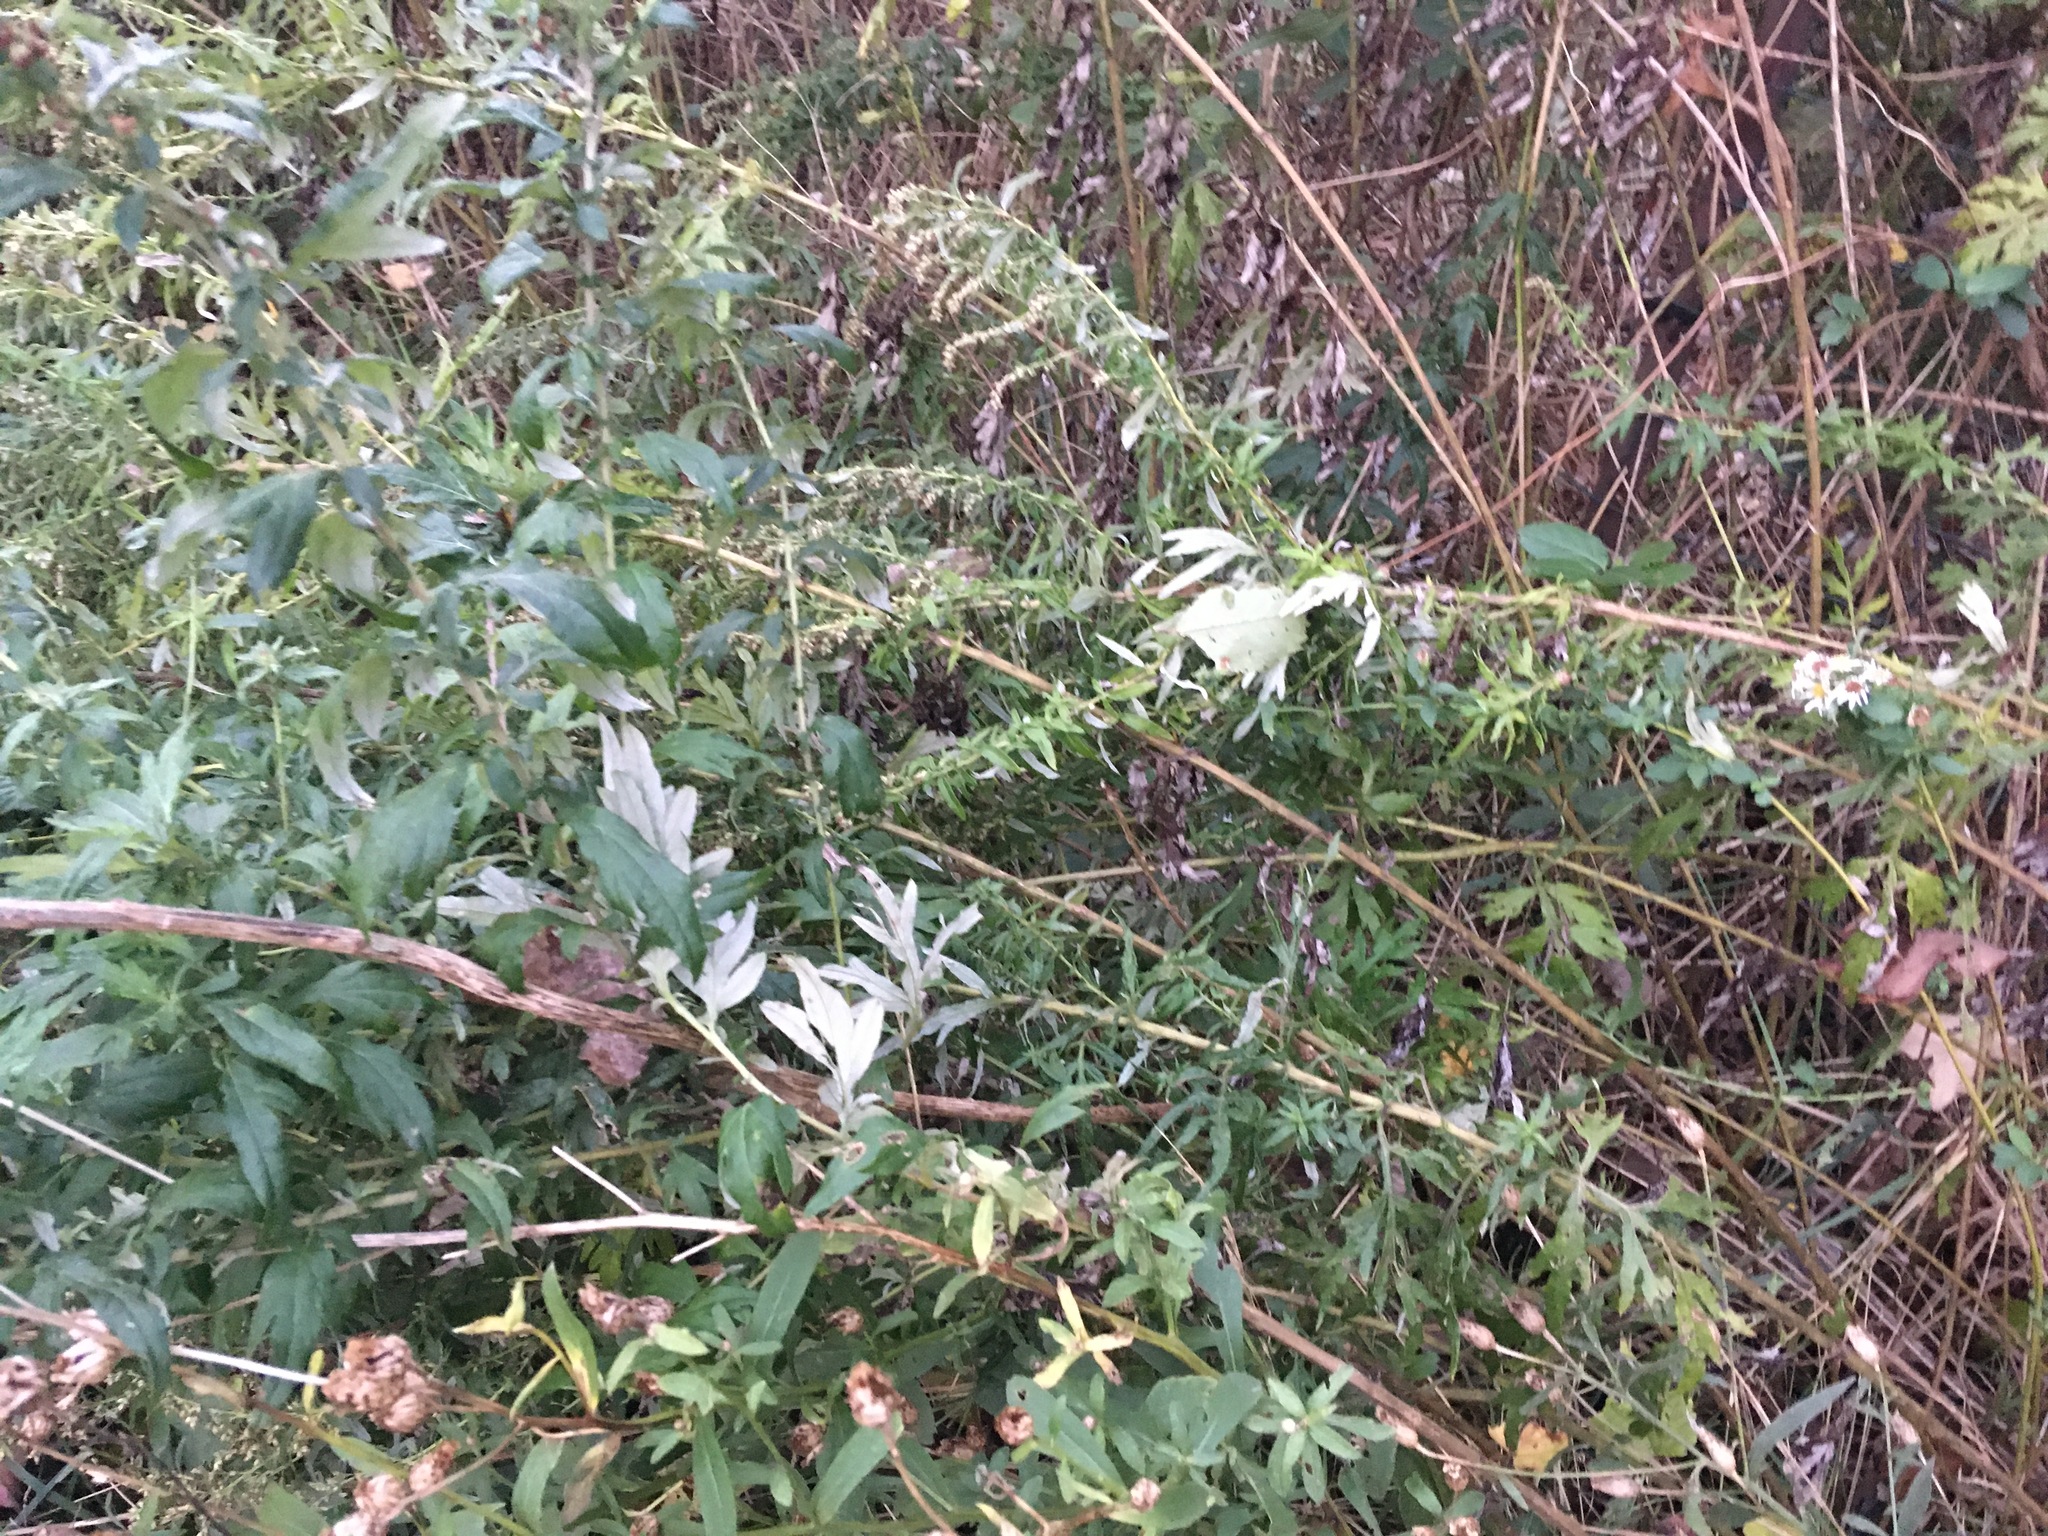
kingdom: Plantae
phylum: Tracheophyta
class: Magnoliopsida
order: Asterales
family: Asteraceae
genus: Artemisia
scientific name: Artemisia vulgaris
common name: Mugwort
